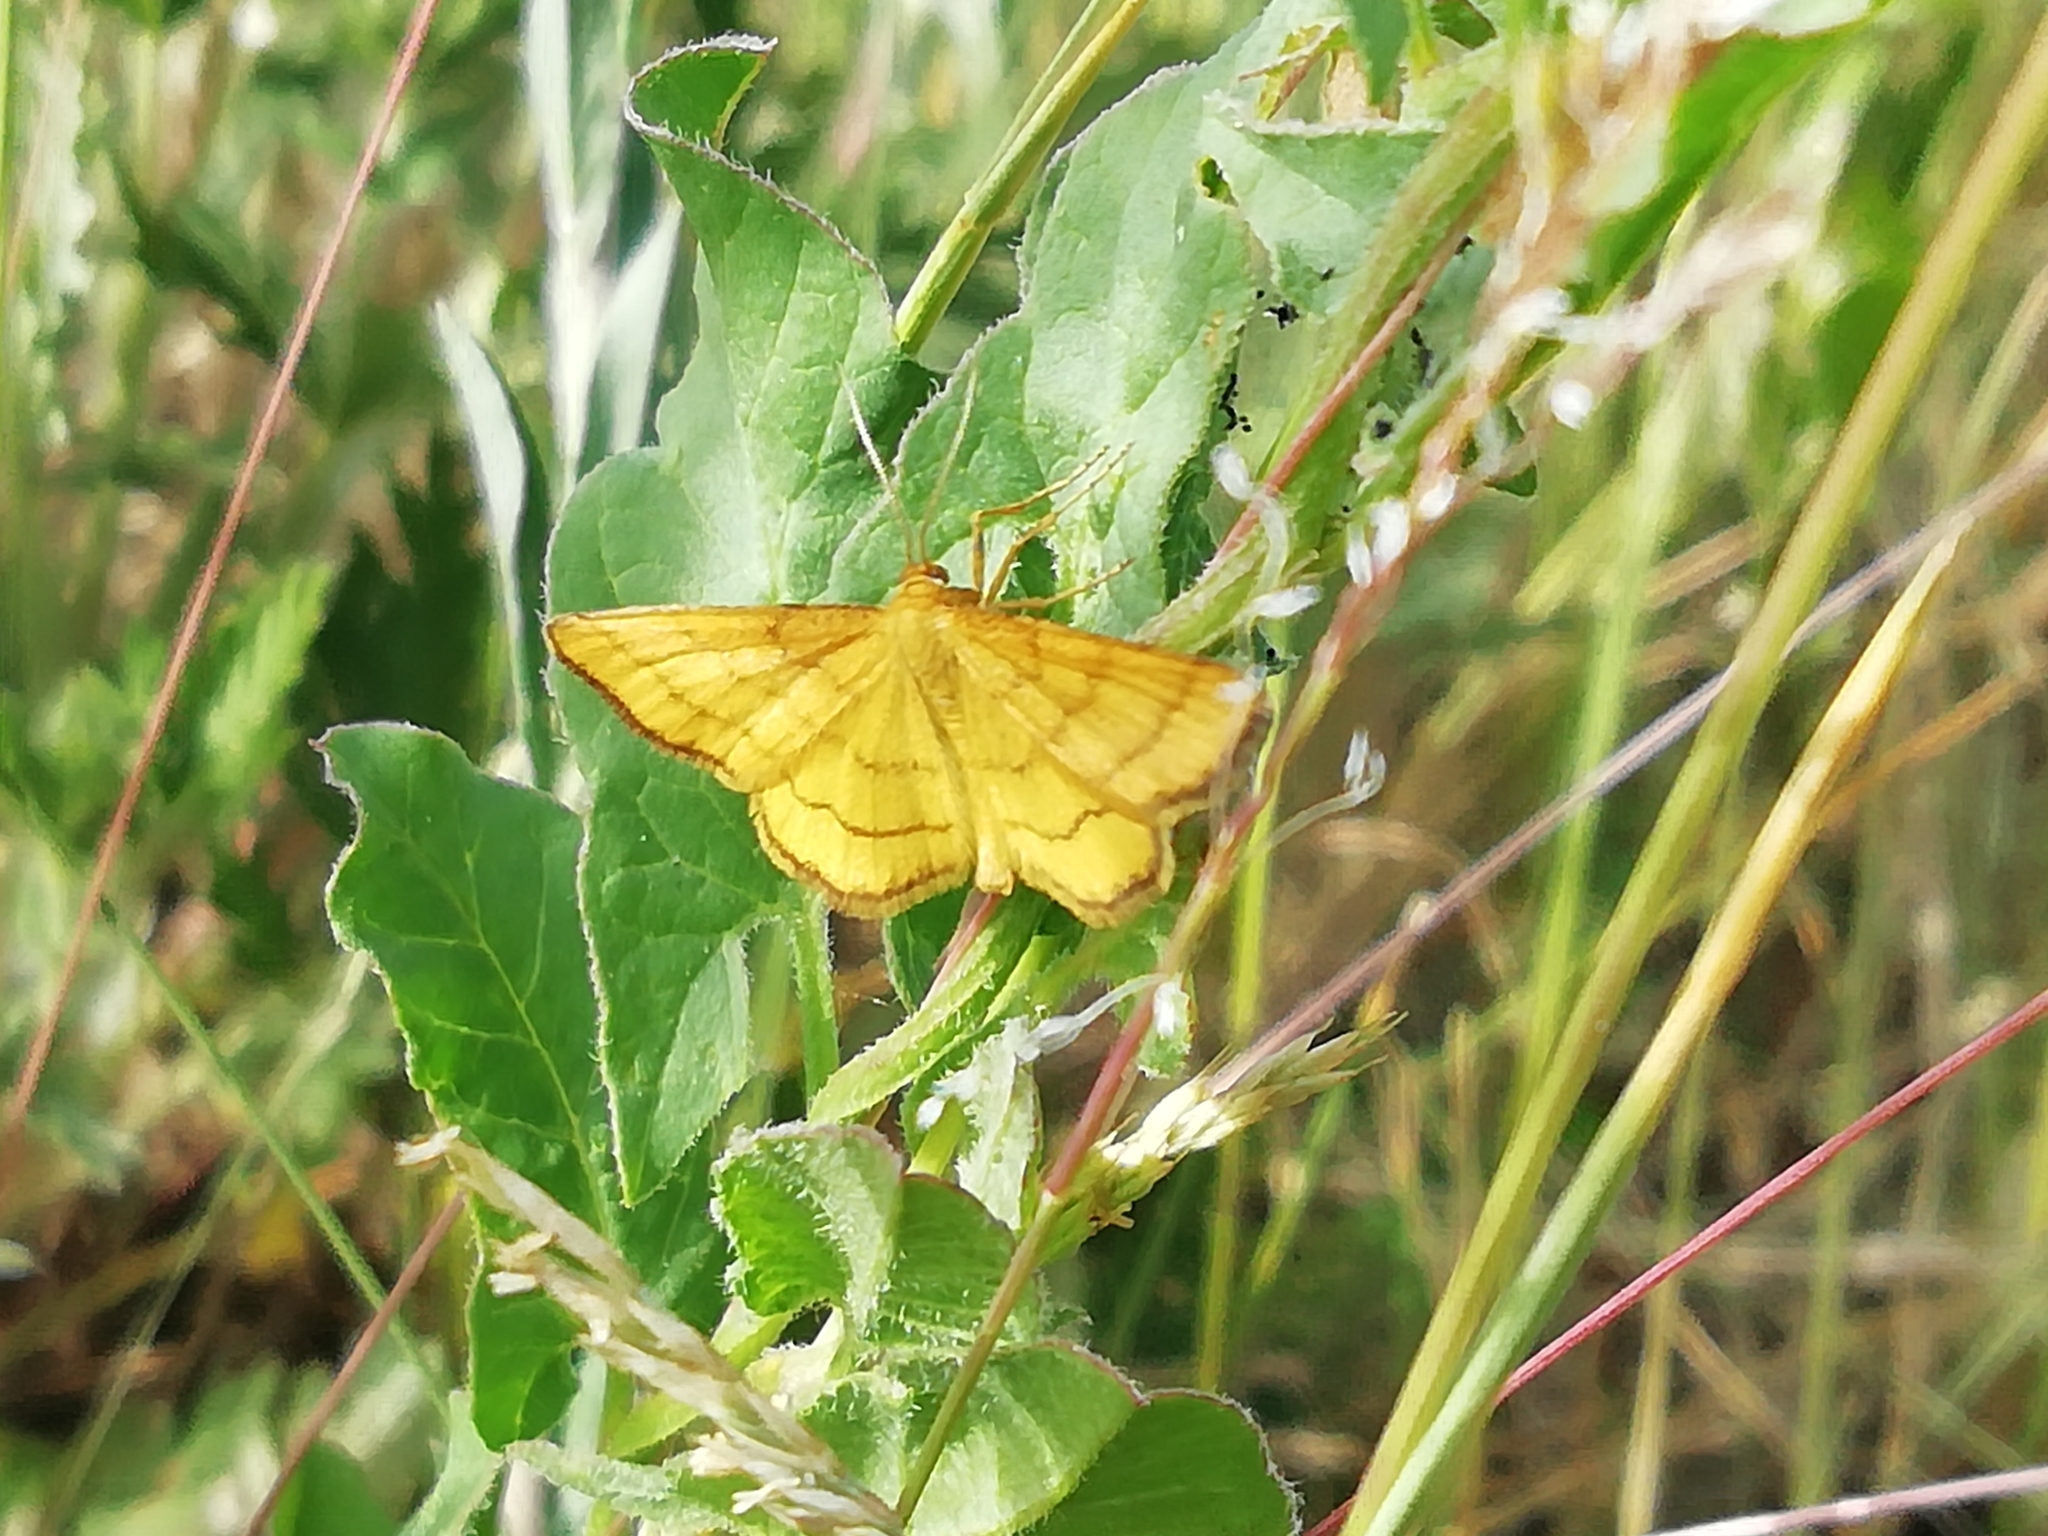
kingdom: Animalia
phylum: Arthropoda
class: Insecta
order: Lepidoptera
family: Geometridae
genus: Idaea
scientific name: Idaea aureolaria
